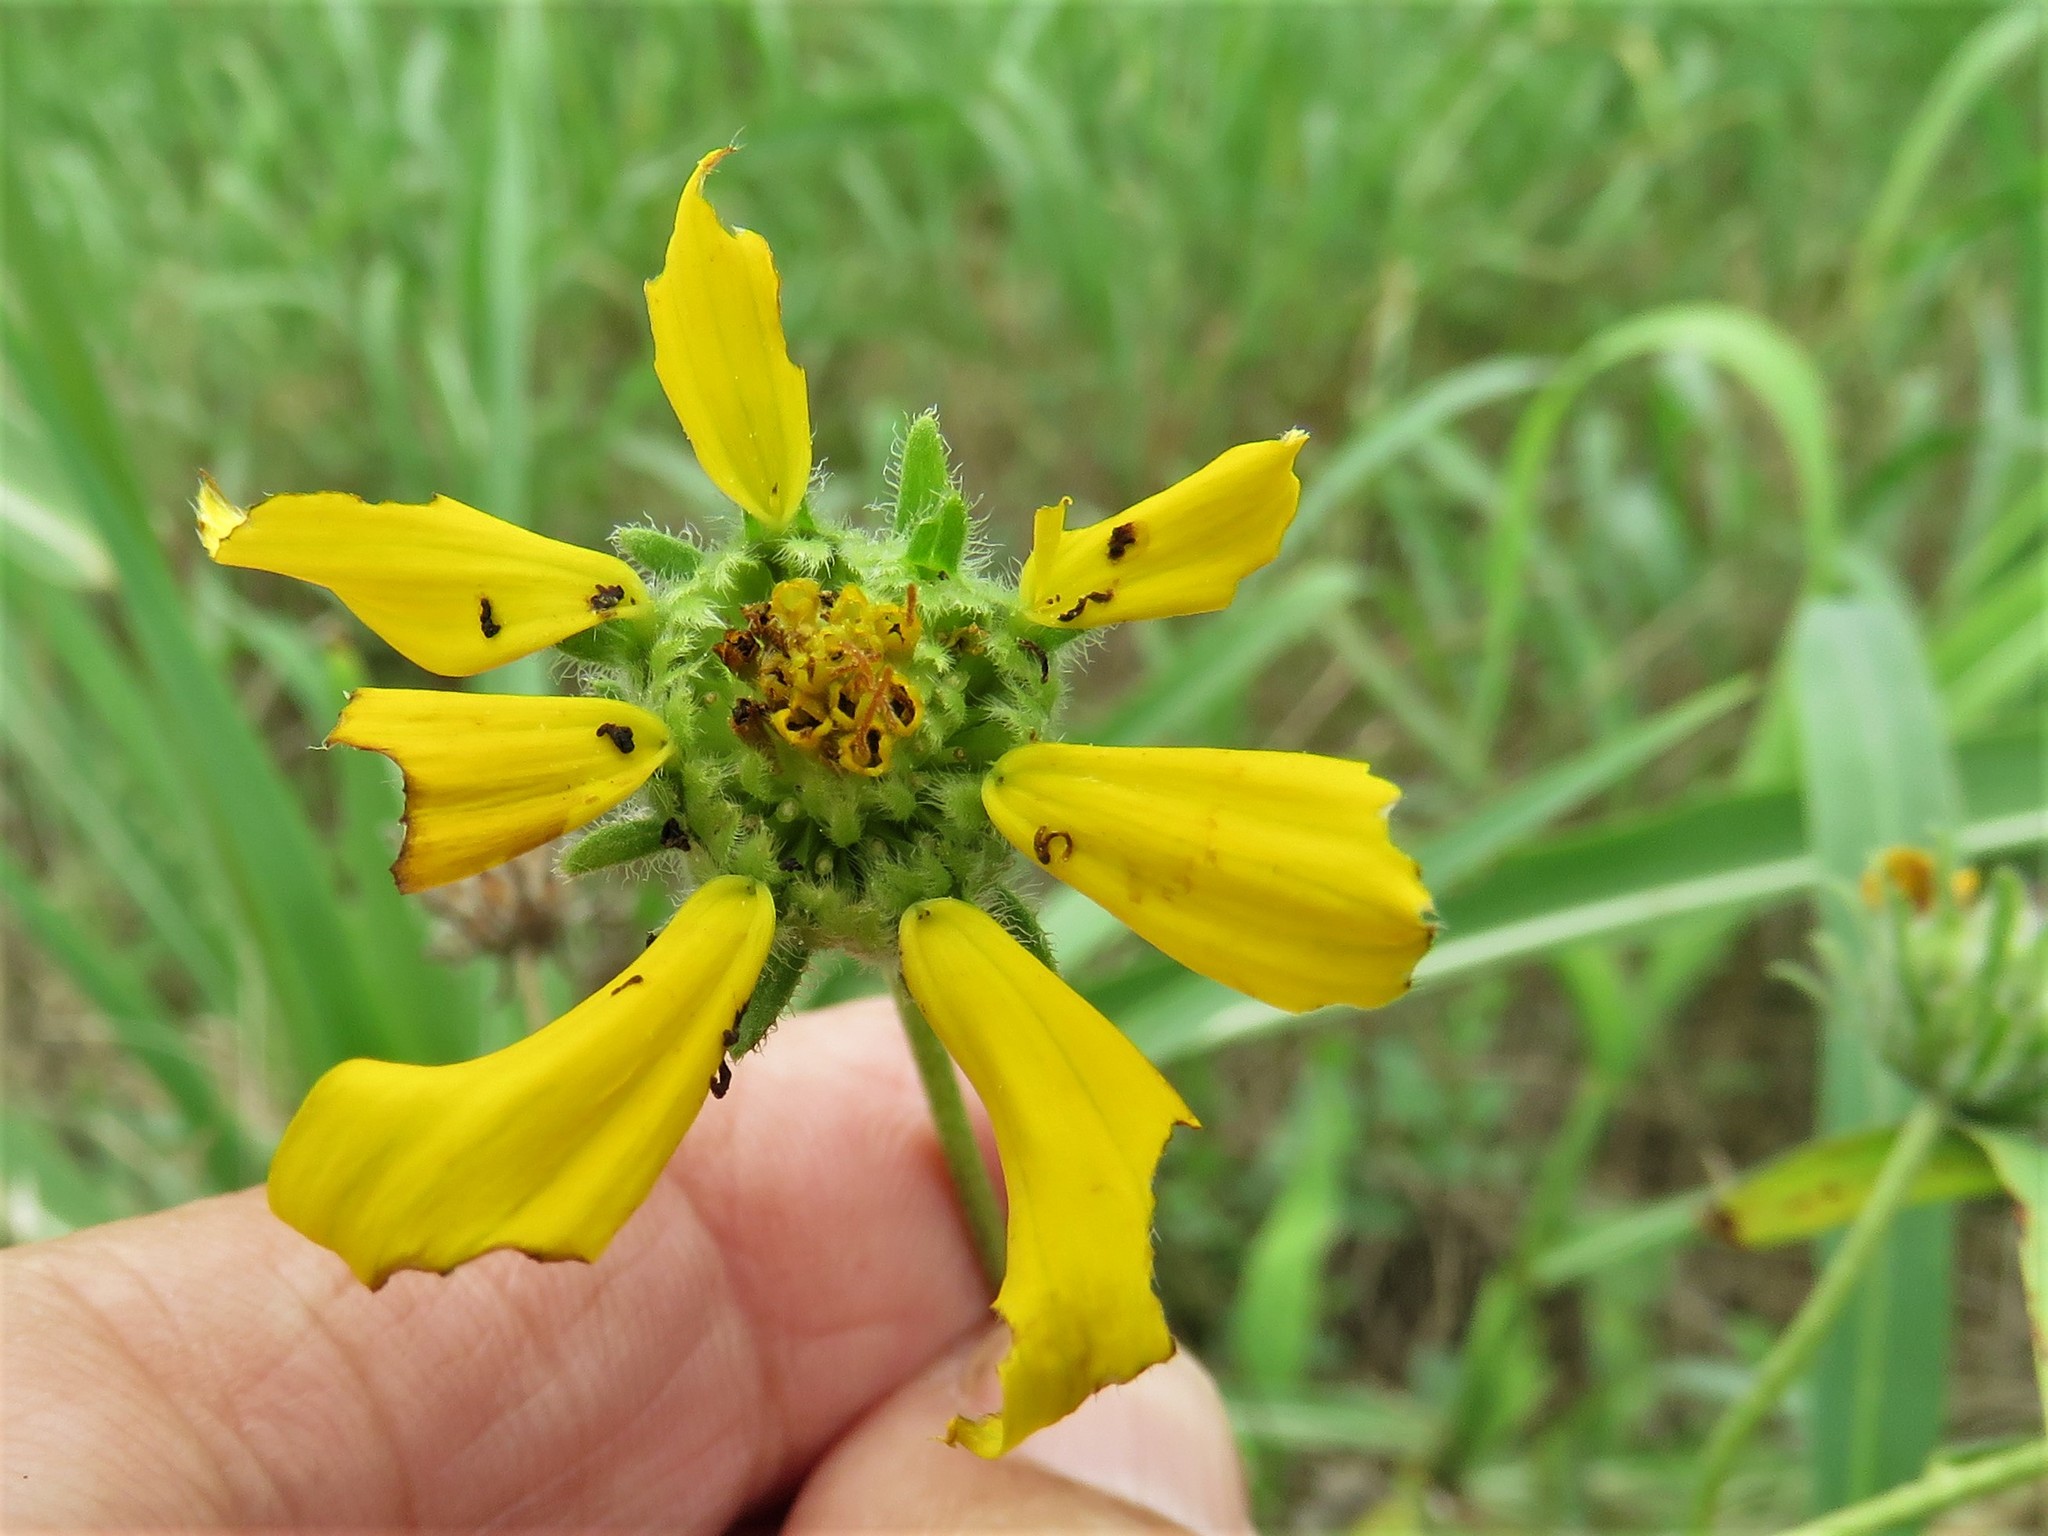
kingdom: Plantae
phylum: Tracheophyta
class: Magnoliopsida
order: Asterales
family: Asteraceae
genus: Engelmannia
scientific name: Engelmannia peristenia
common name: Engelmann's daisy
